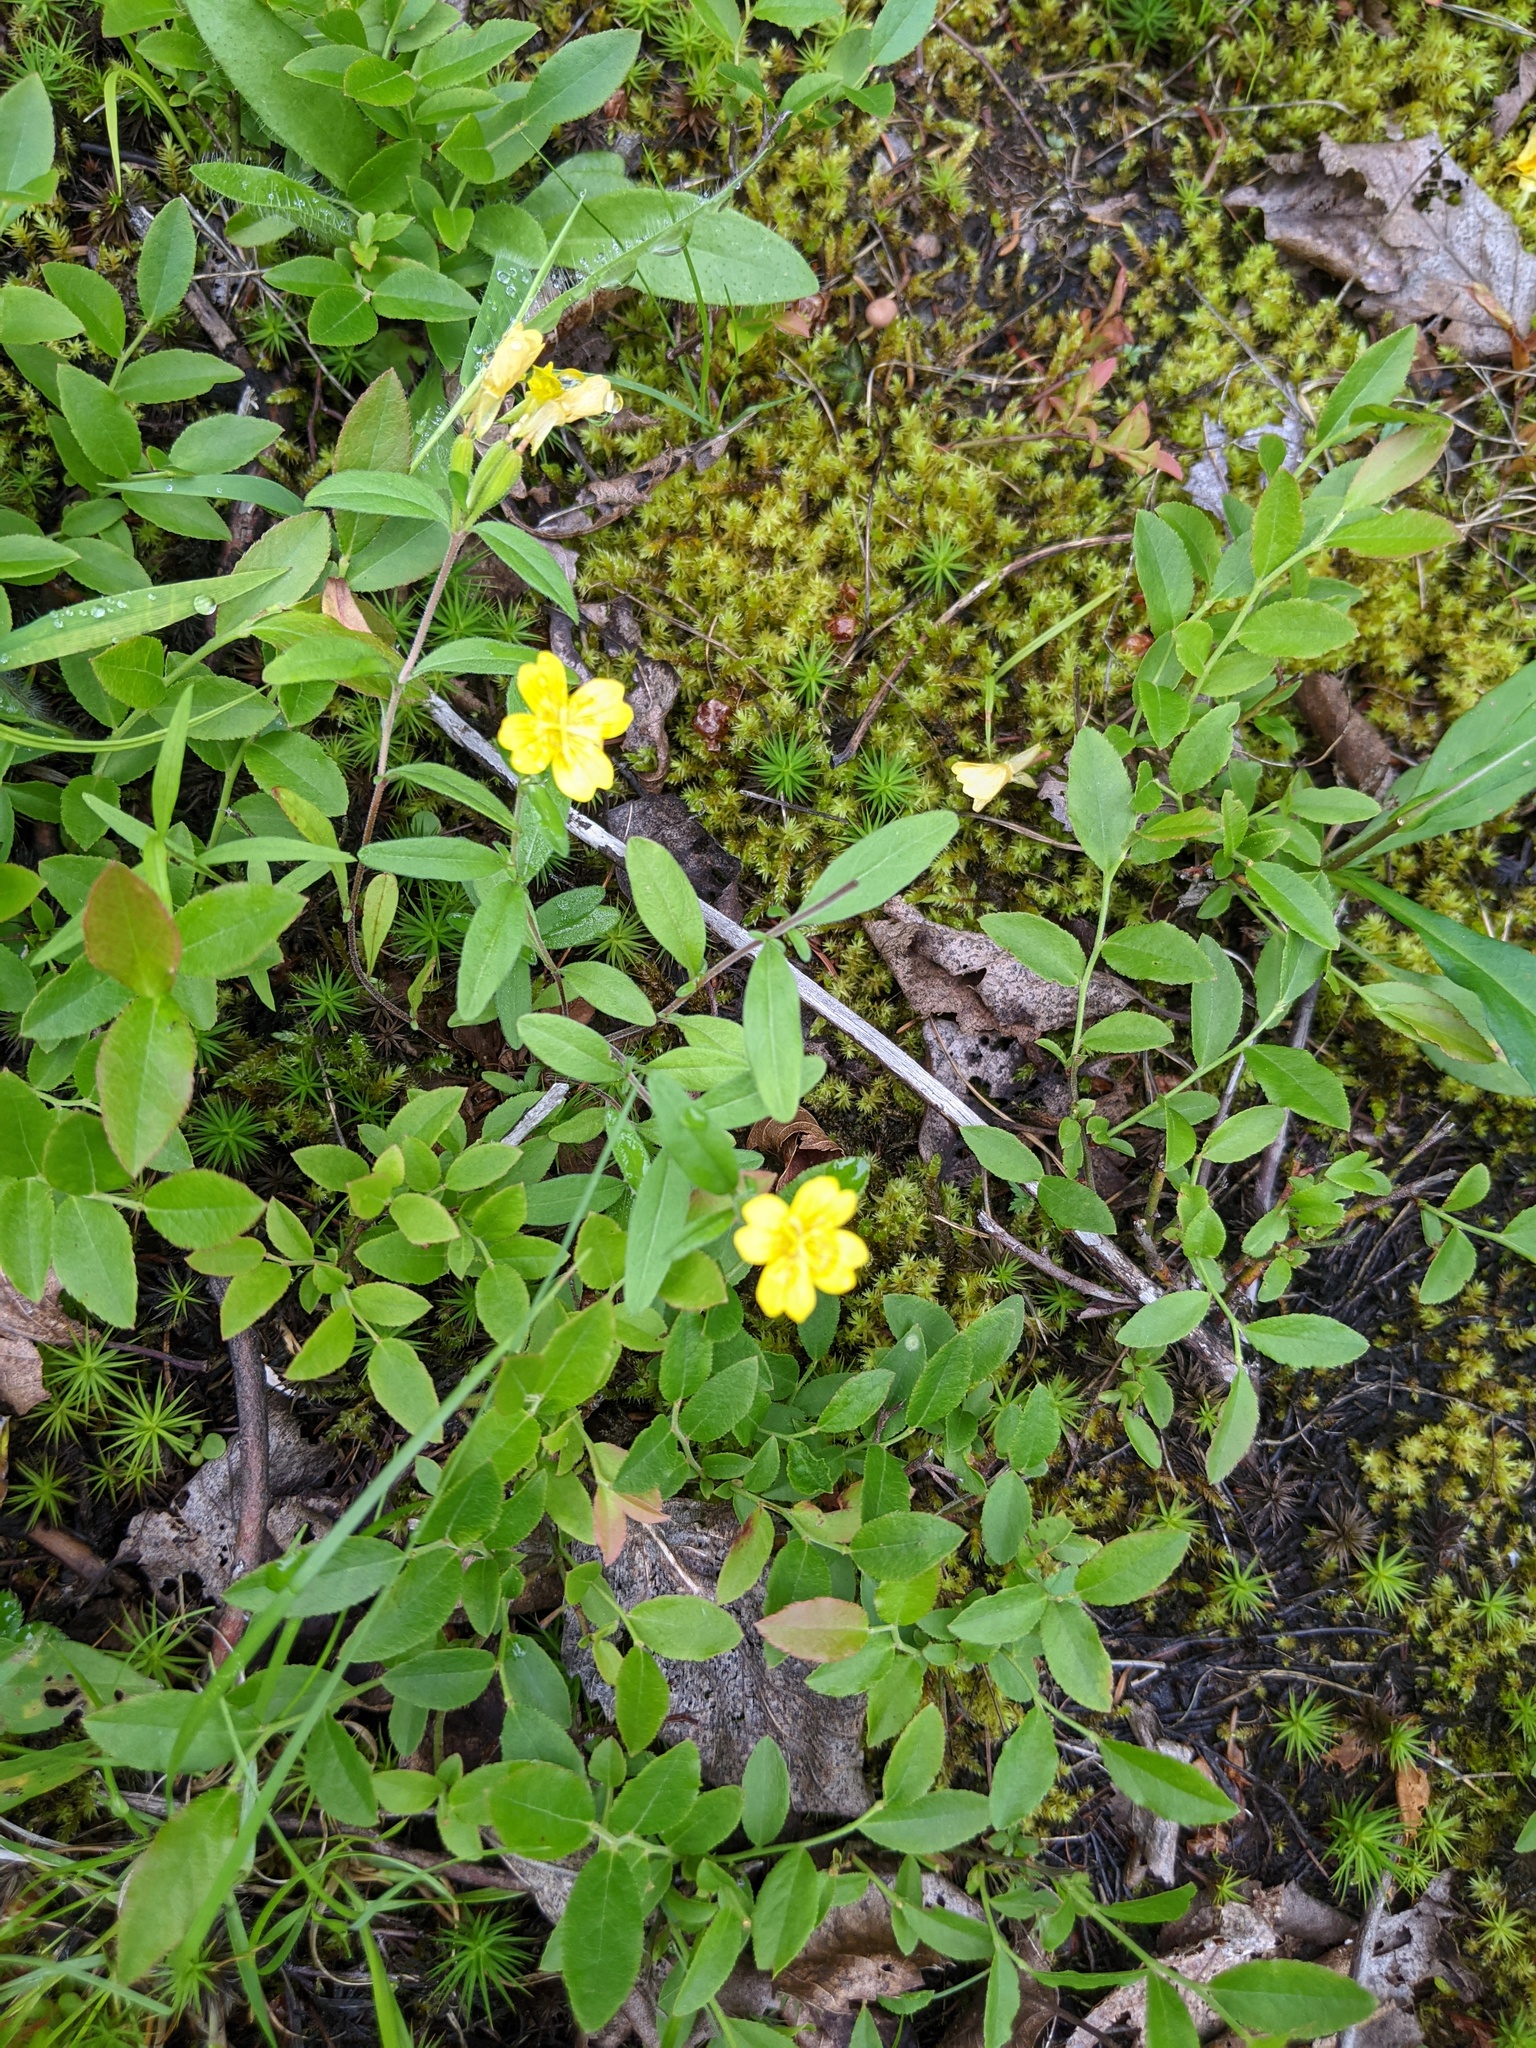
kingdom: Plantae
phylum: Tracheophyta
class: Magnoliopsida
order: Myrtales
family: Onagraceae
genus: Oenothera
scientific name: Oenothera perennis
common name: Small sundrops
